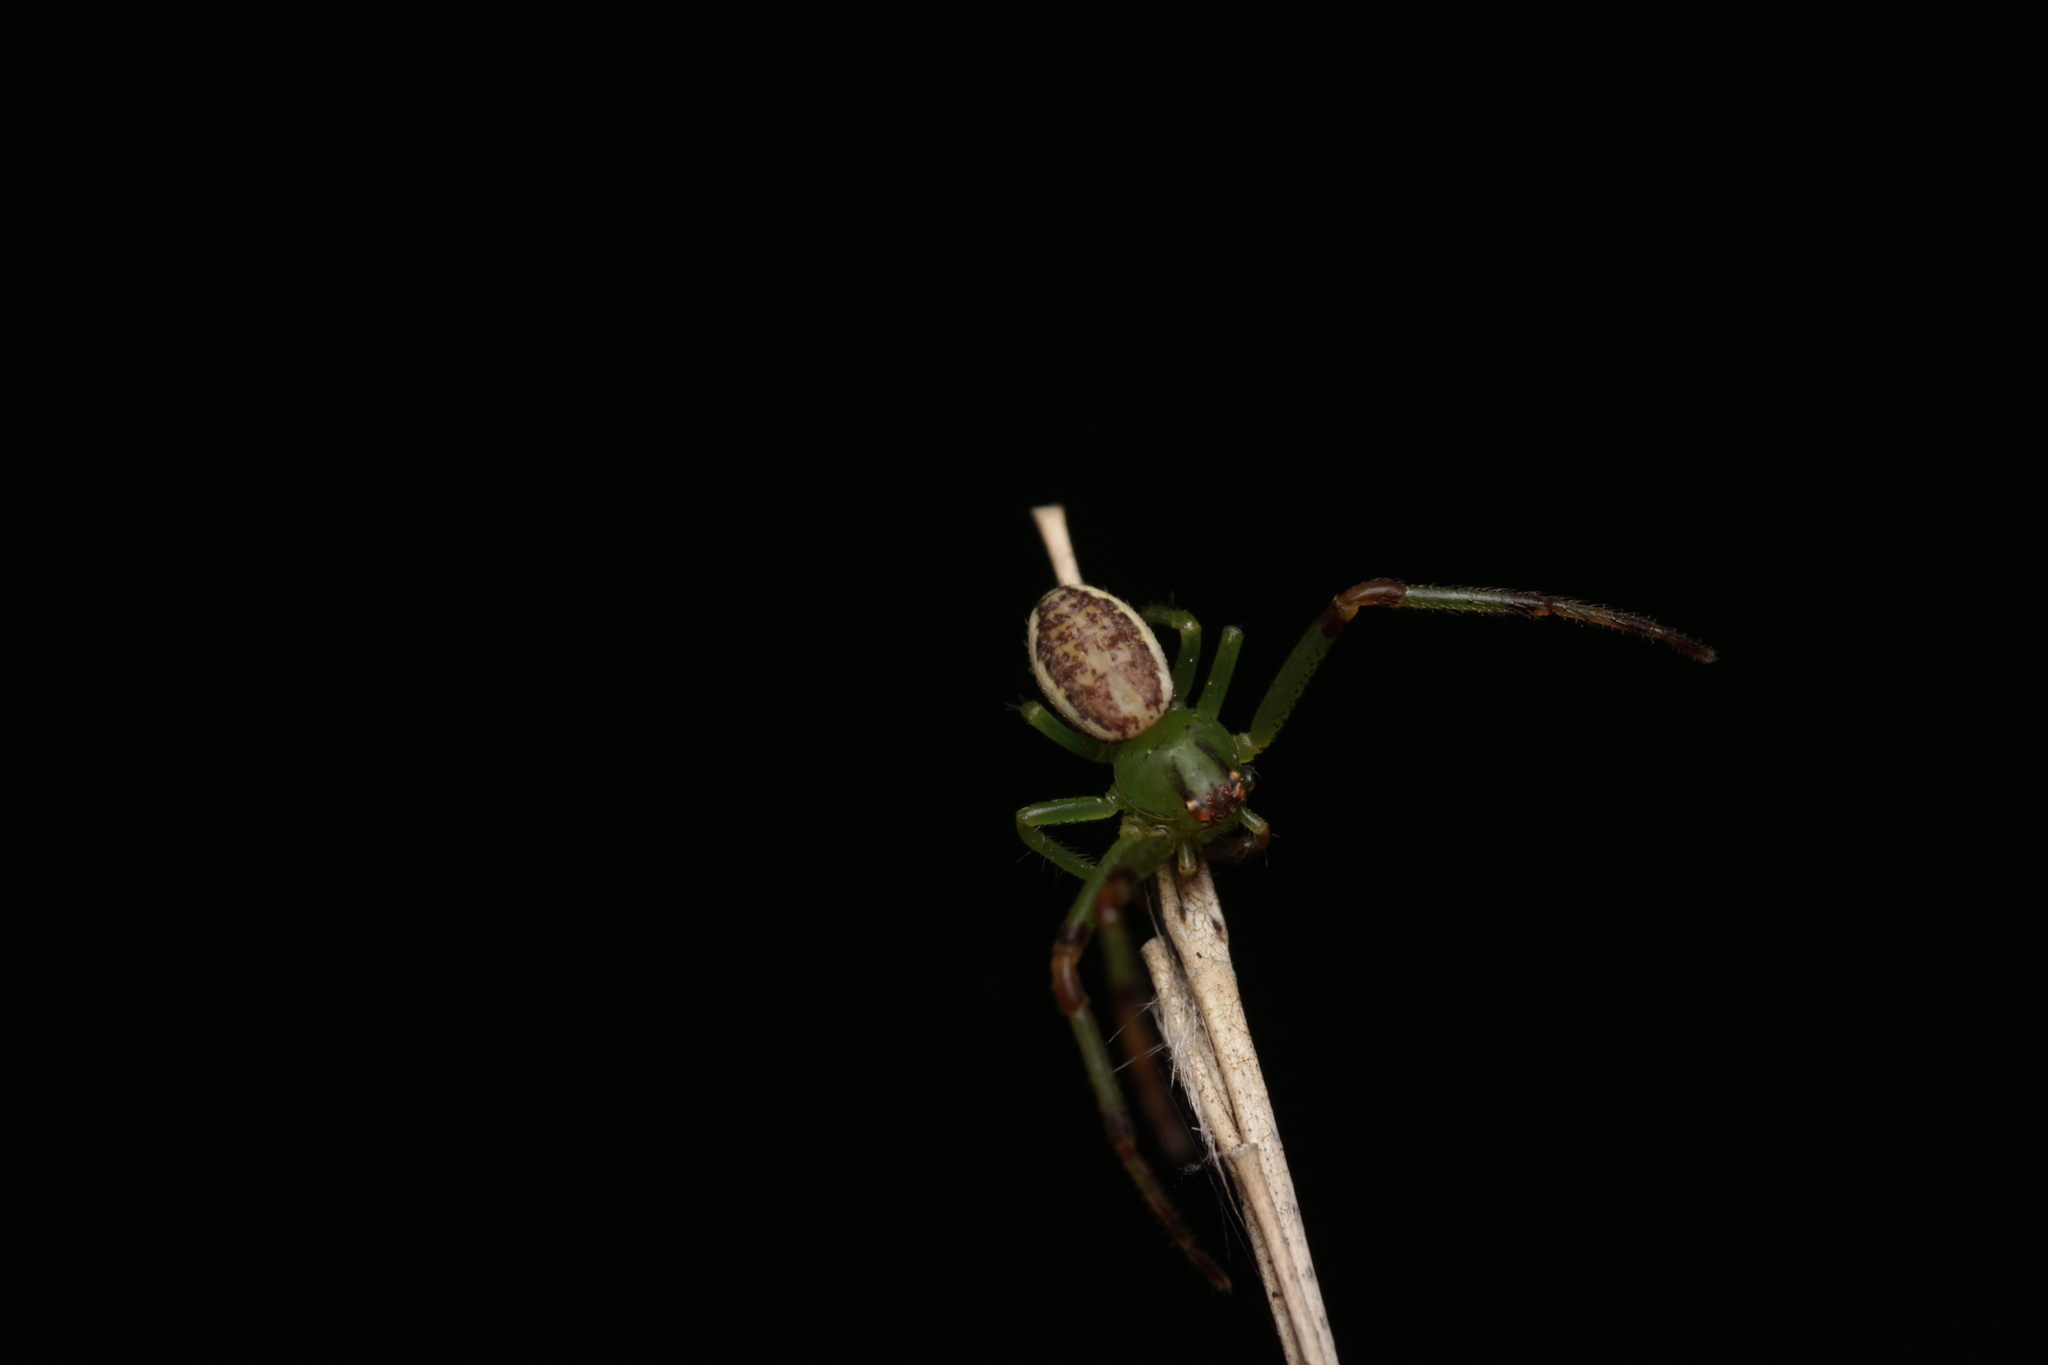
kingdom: Animalia
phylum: Arthropoda
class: Arachnida
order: Araneae
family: Thomisidae
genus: Diaea
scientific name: Diaea dorsata
